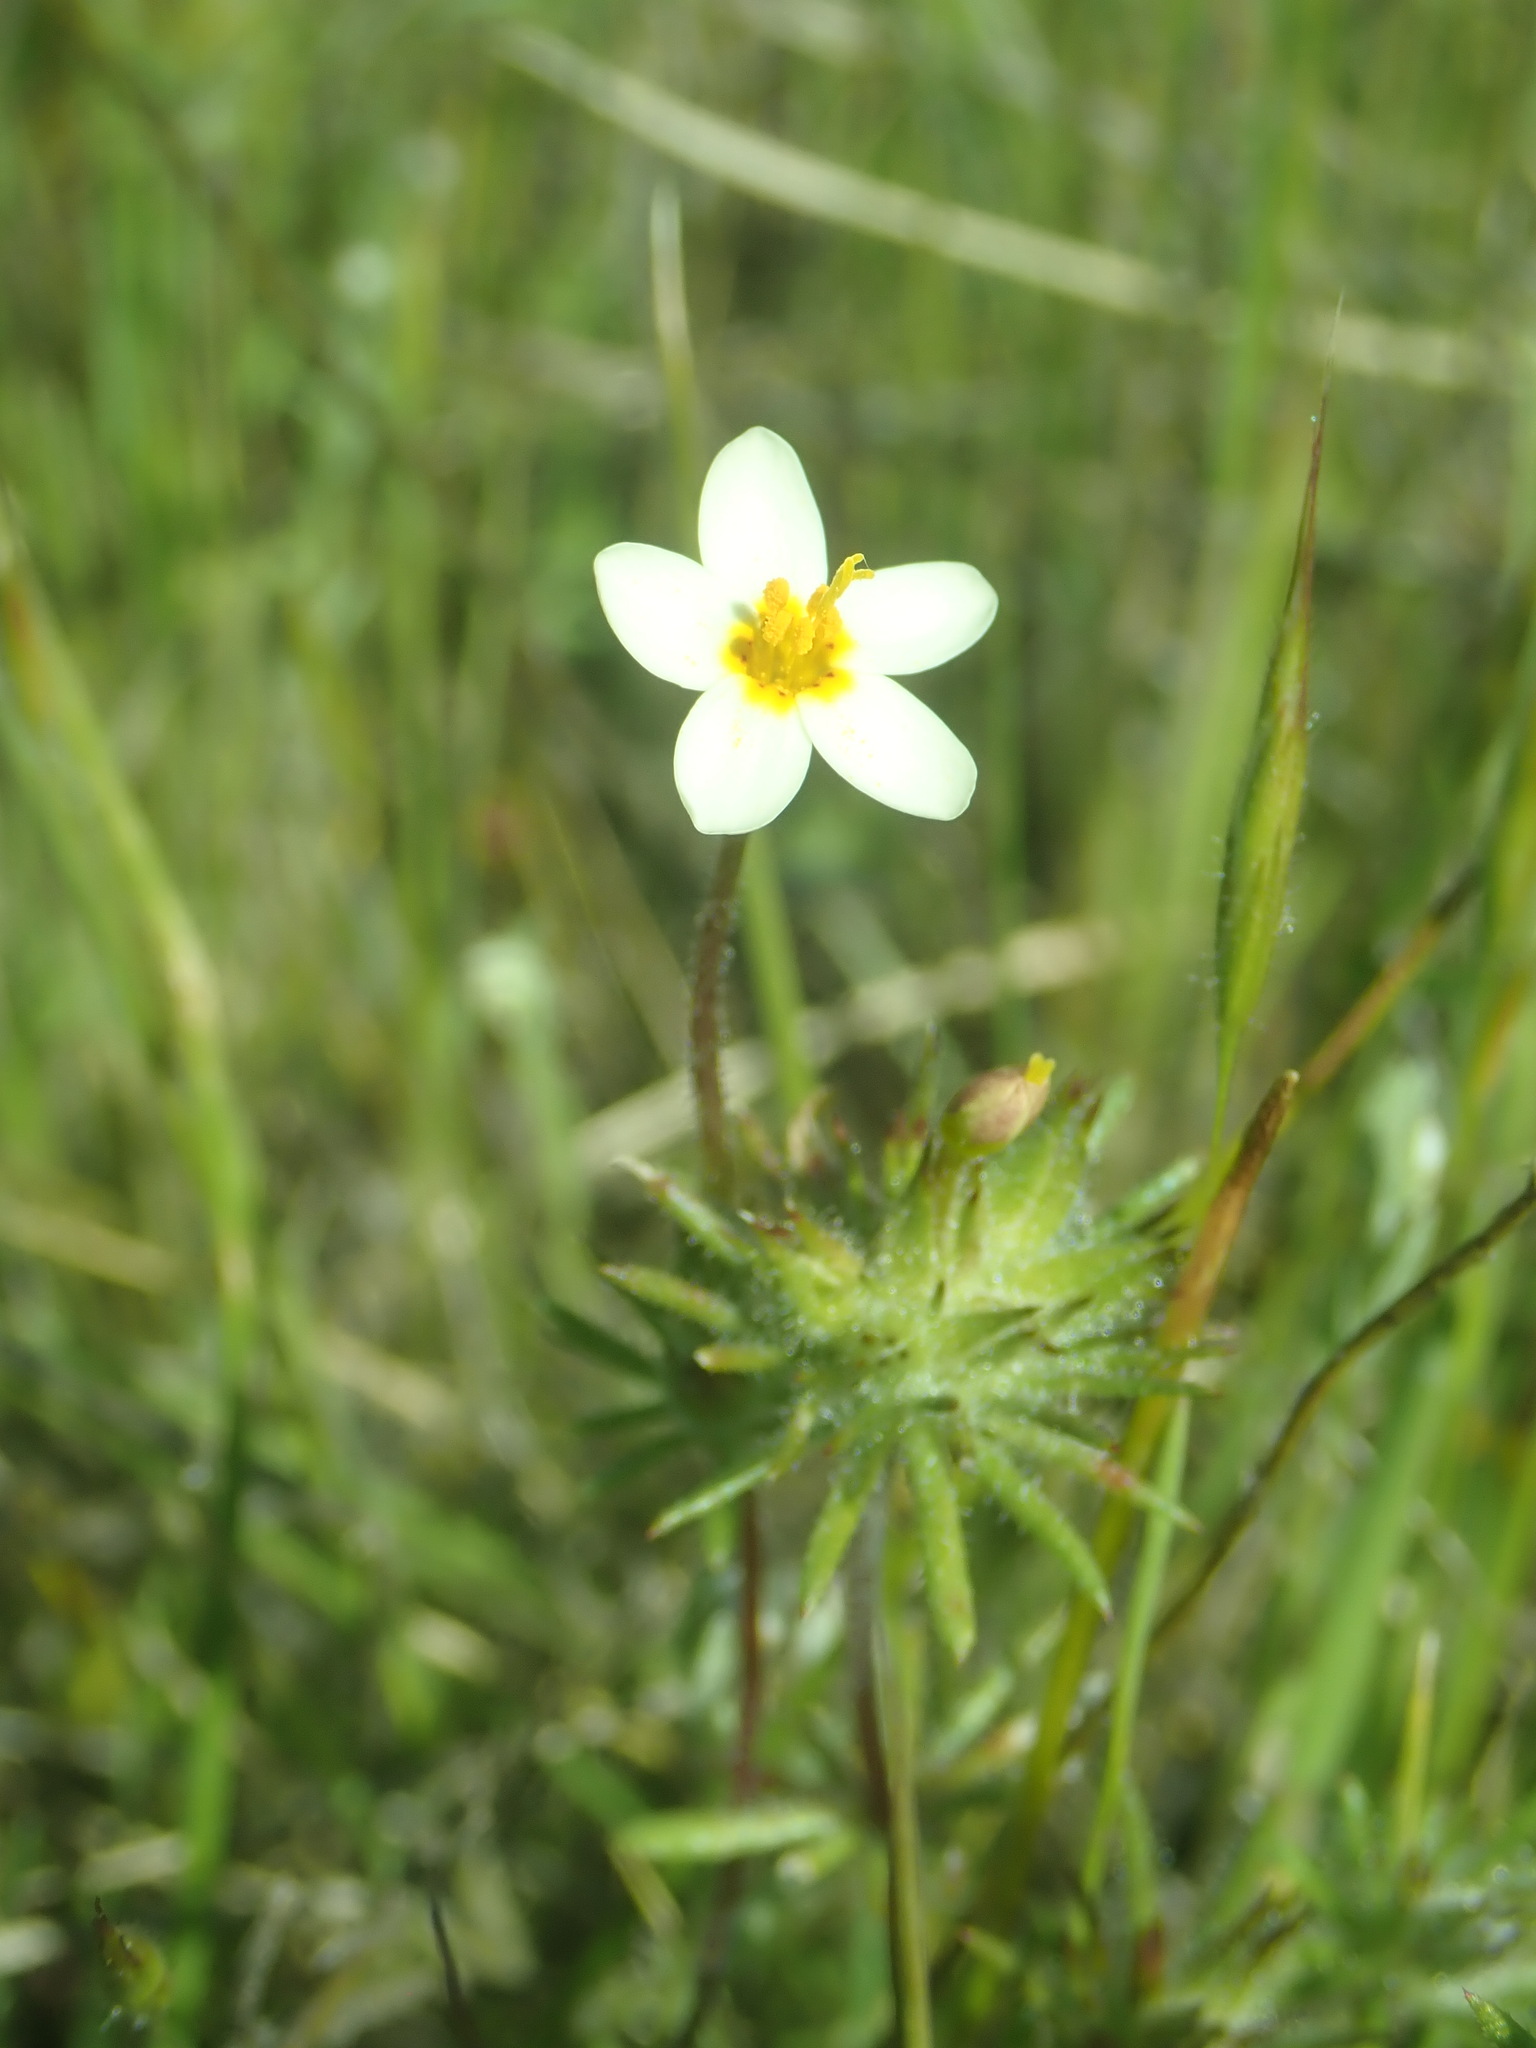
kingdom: Plantae
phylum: Tracheophyta
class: Magnoliopsida
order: Ericales
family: Polemoniaceae
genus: Leptosiphon
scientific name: Leptosiphon parviflorus
